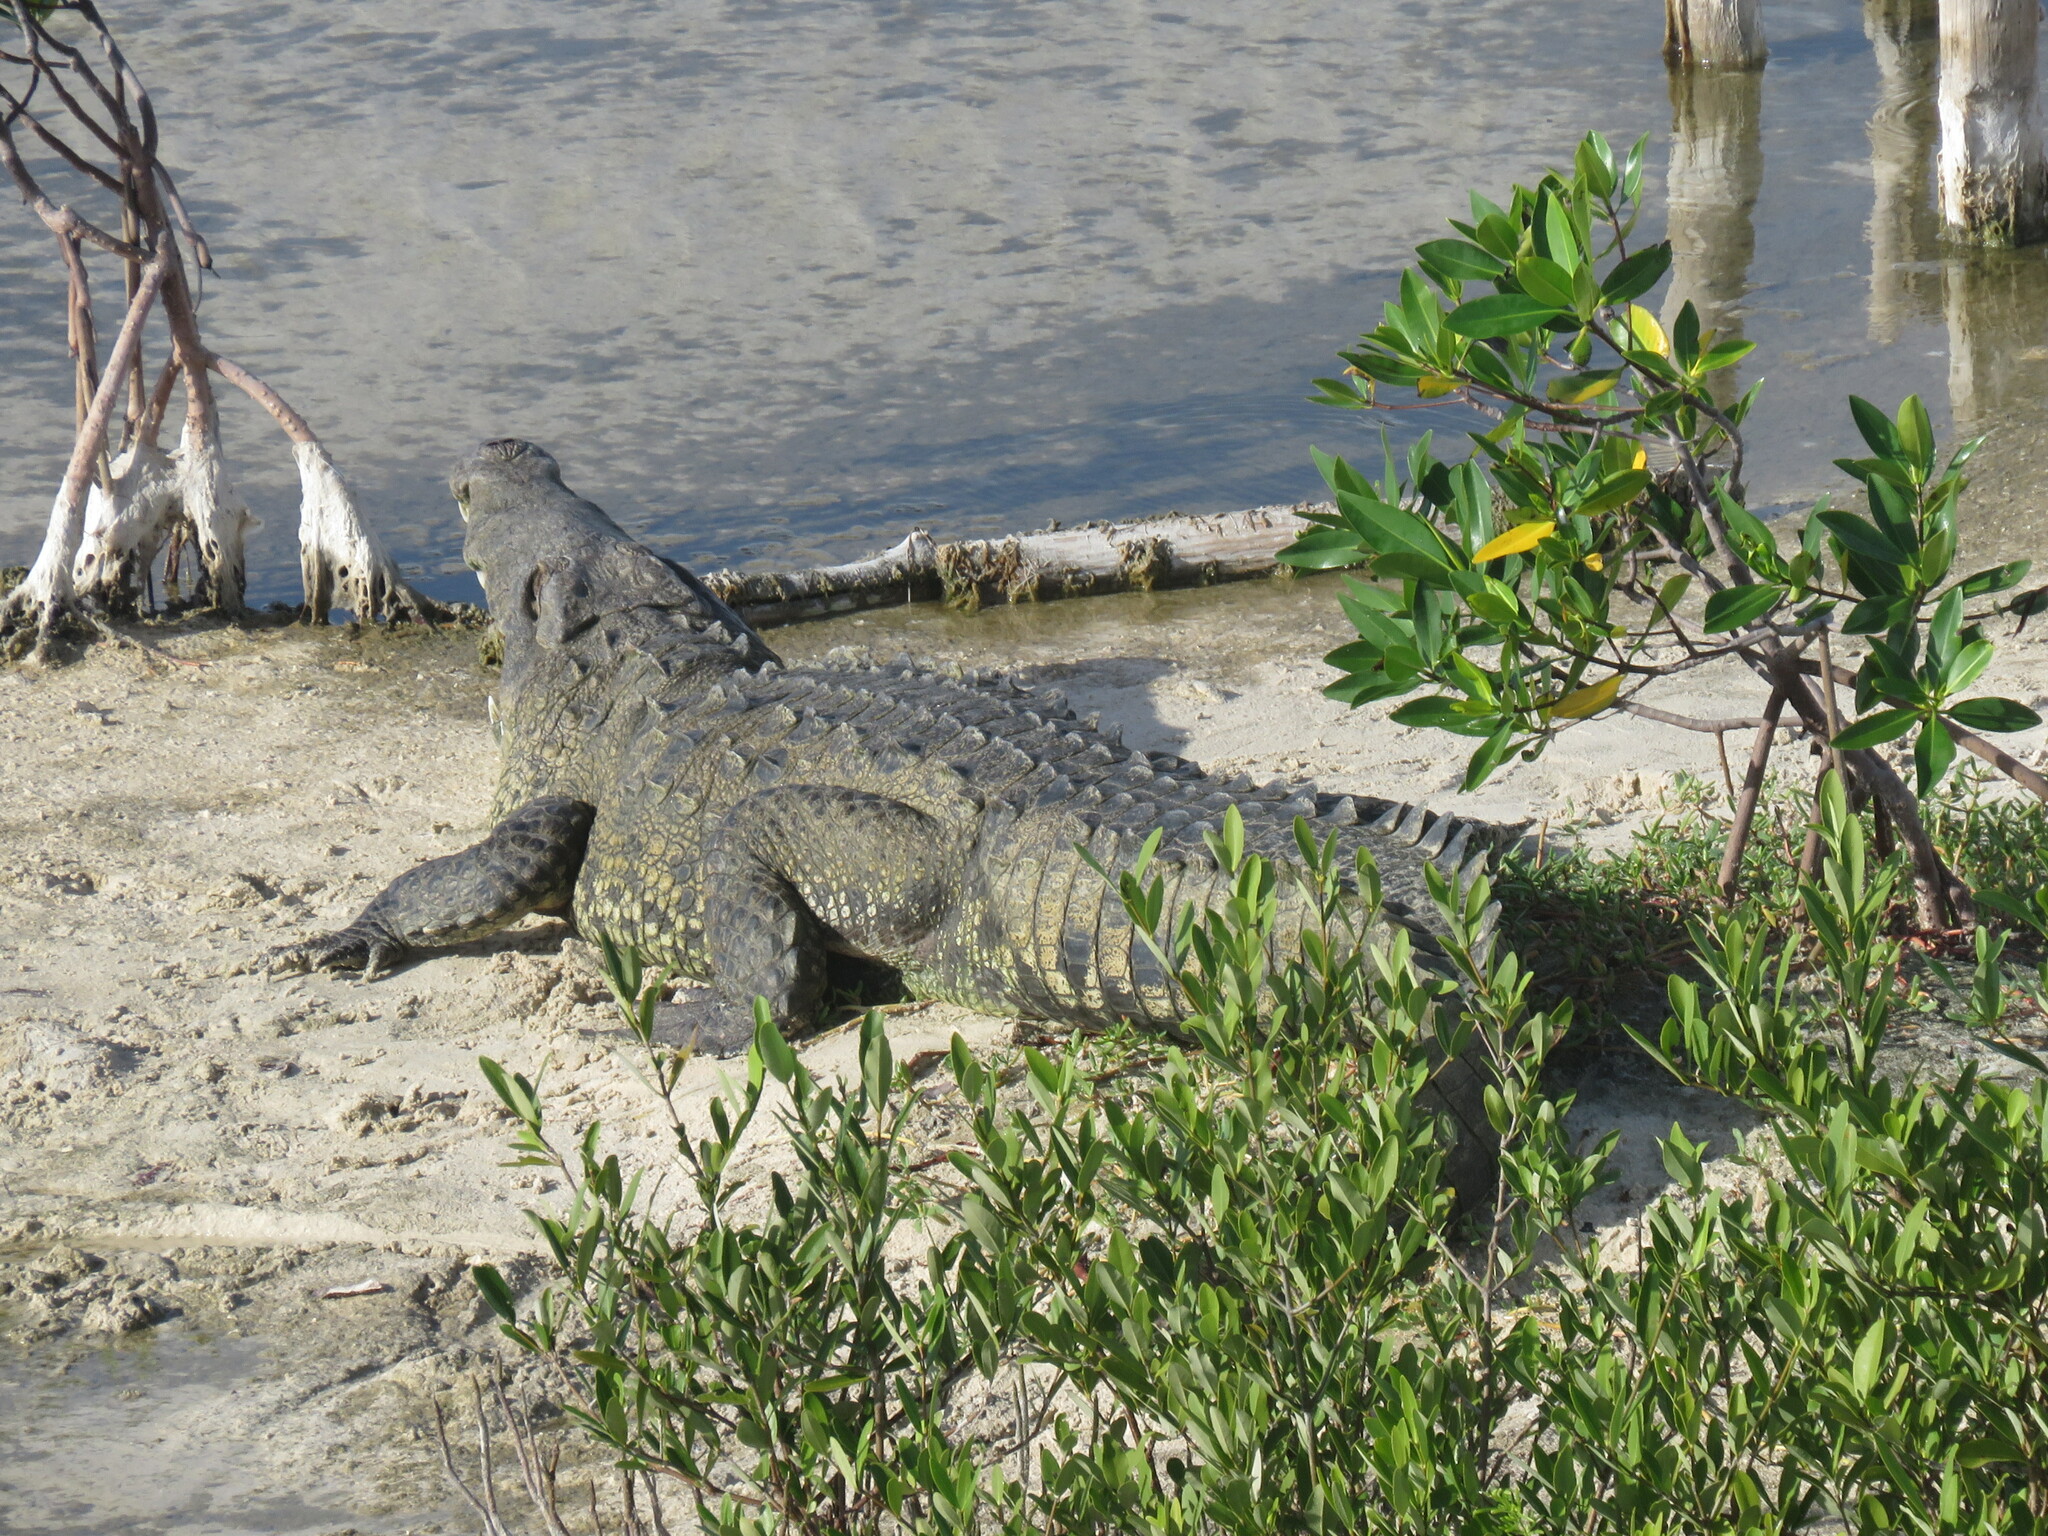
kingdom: Animalia
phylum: Chordata
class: Crocodylia
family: Crocodylidae
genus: Crocodylus
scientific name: Crocodylus acutus
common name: American crocodile
